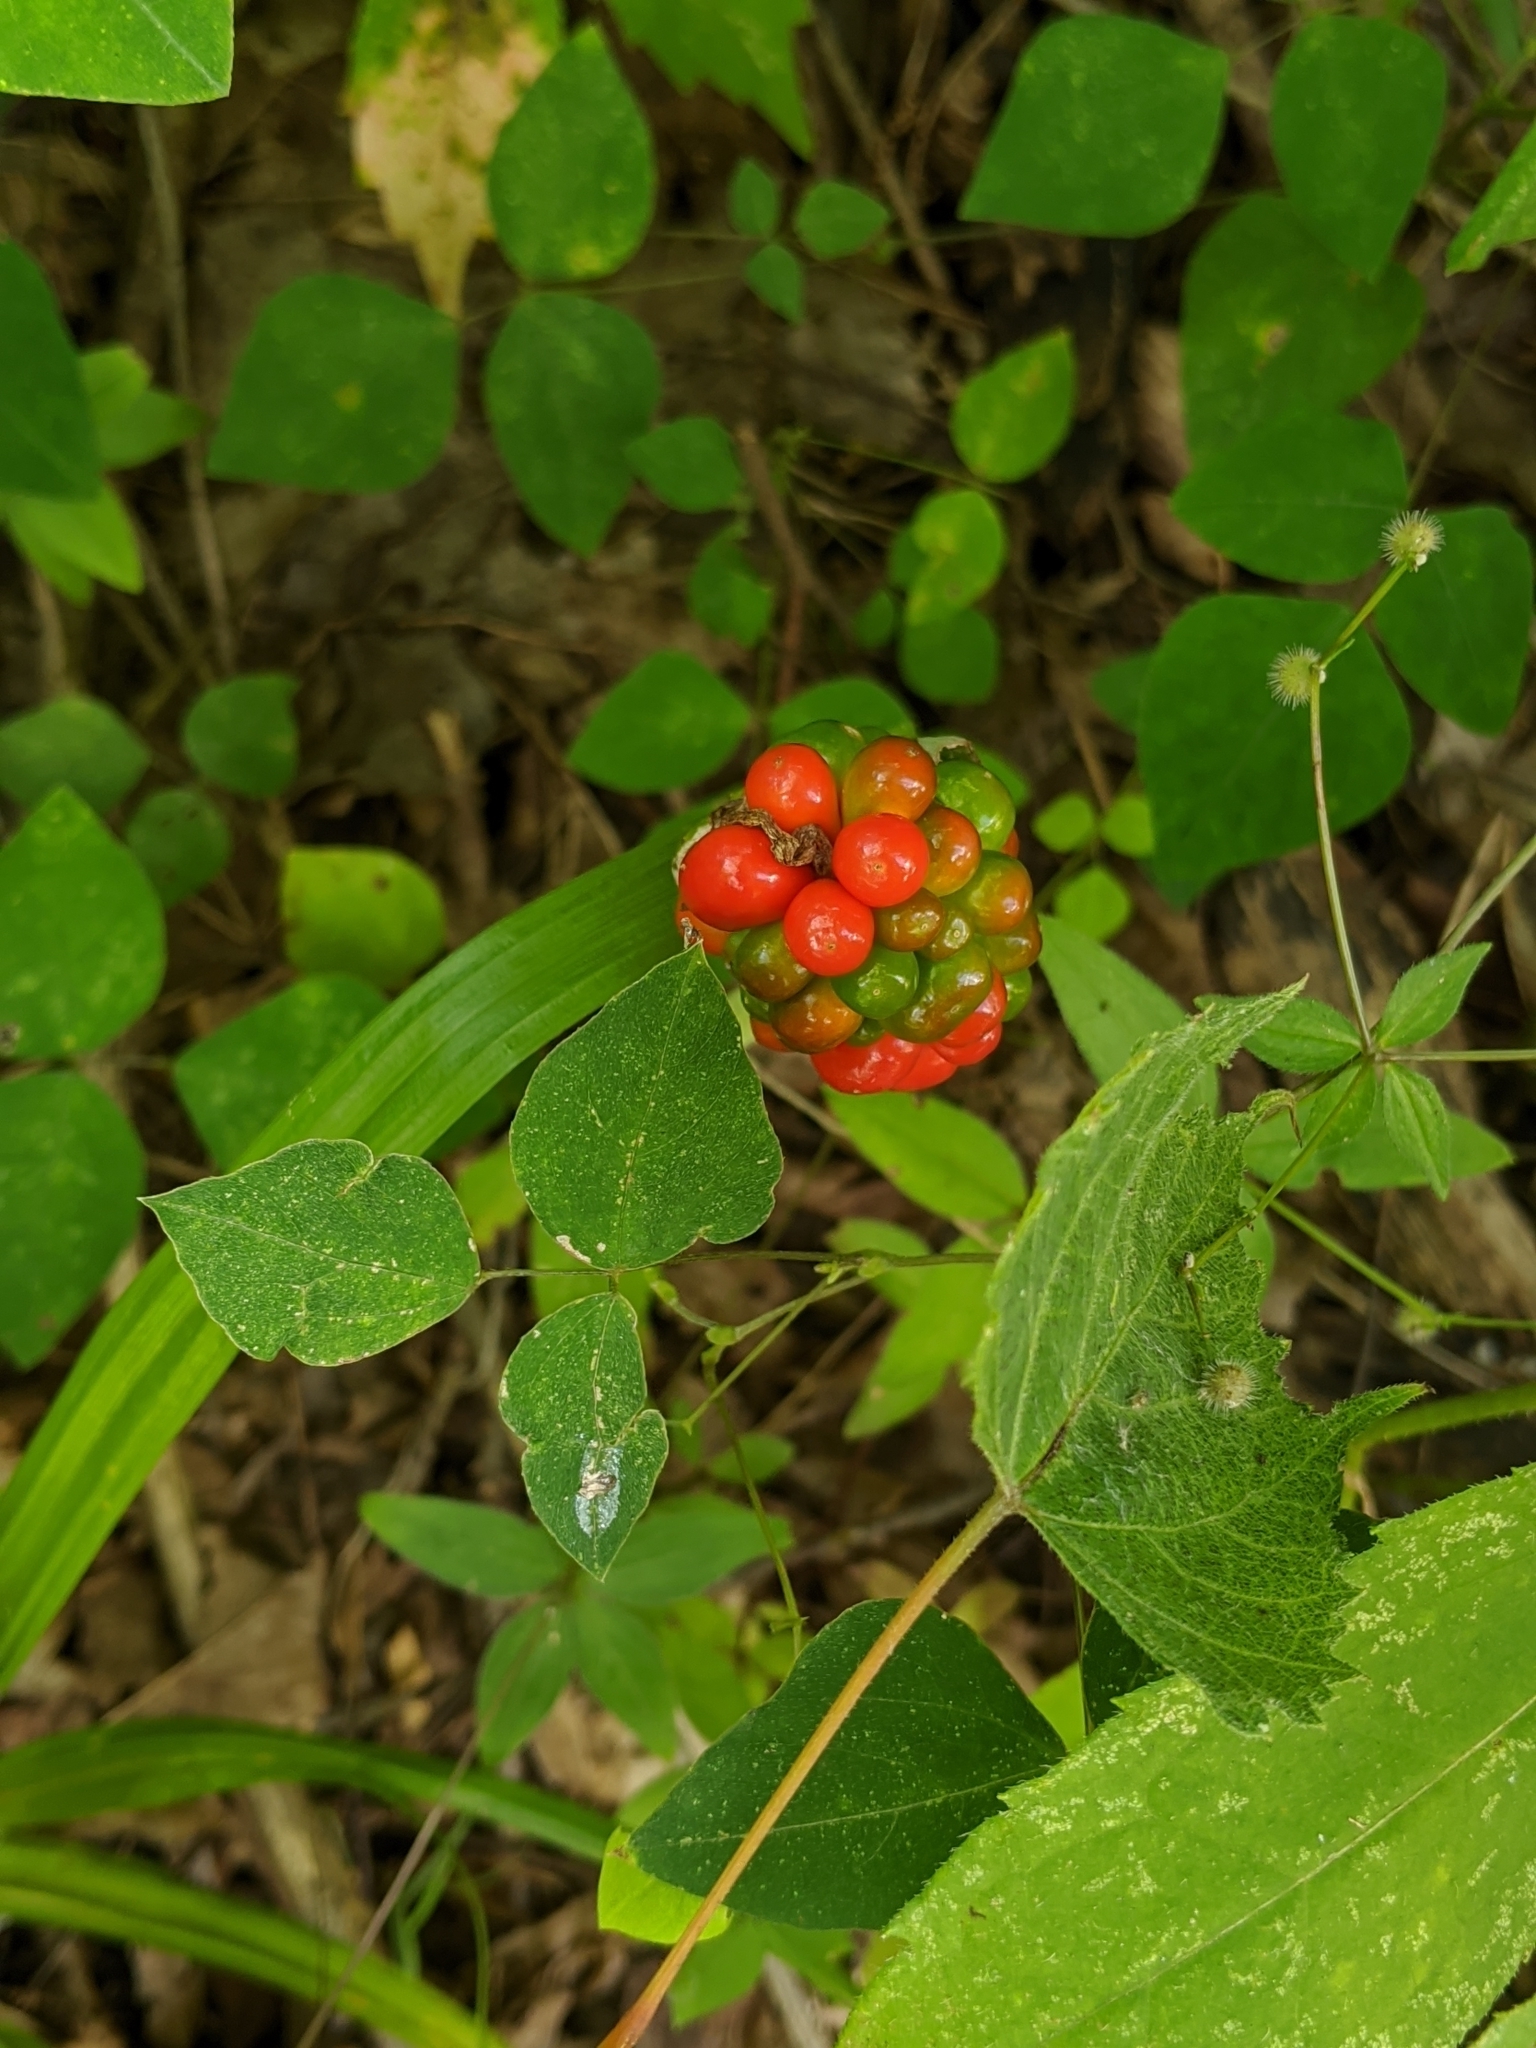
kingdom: Plantae
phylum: Tracheophyta
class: Liliopsida
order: Alismatales
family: Araceae
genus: Arisaema
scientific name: Arisaema triphyllum
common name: Jack-in-the-pulpit
